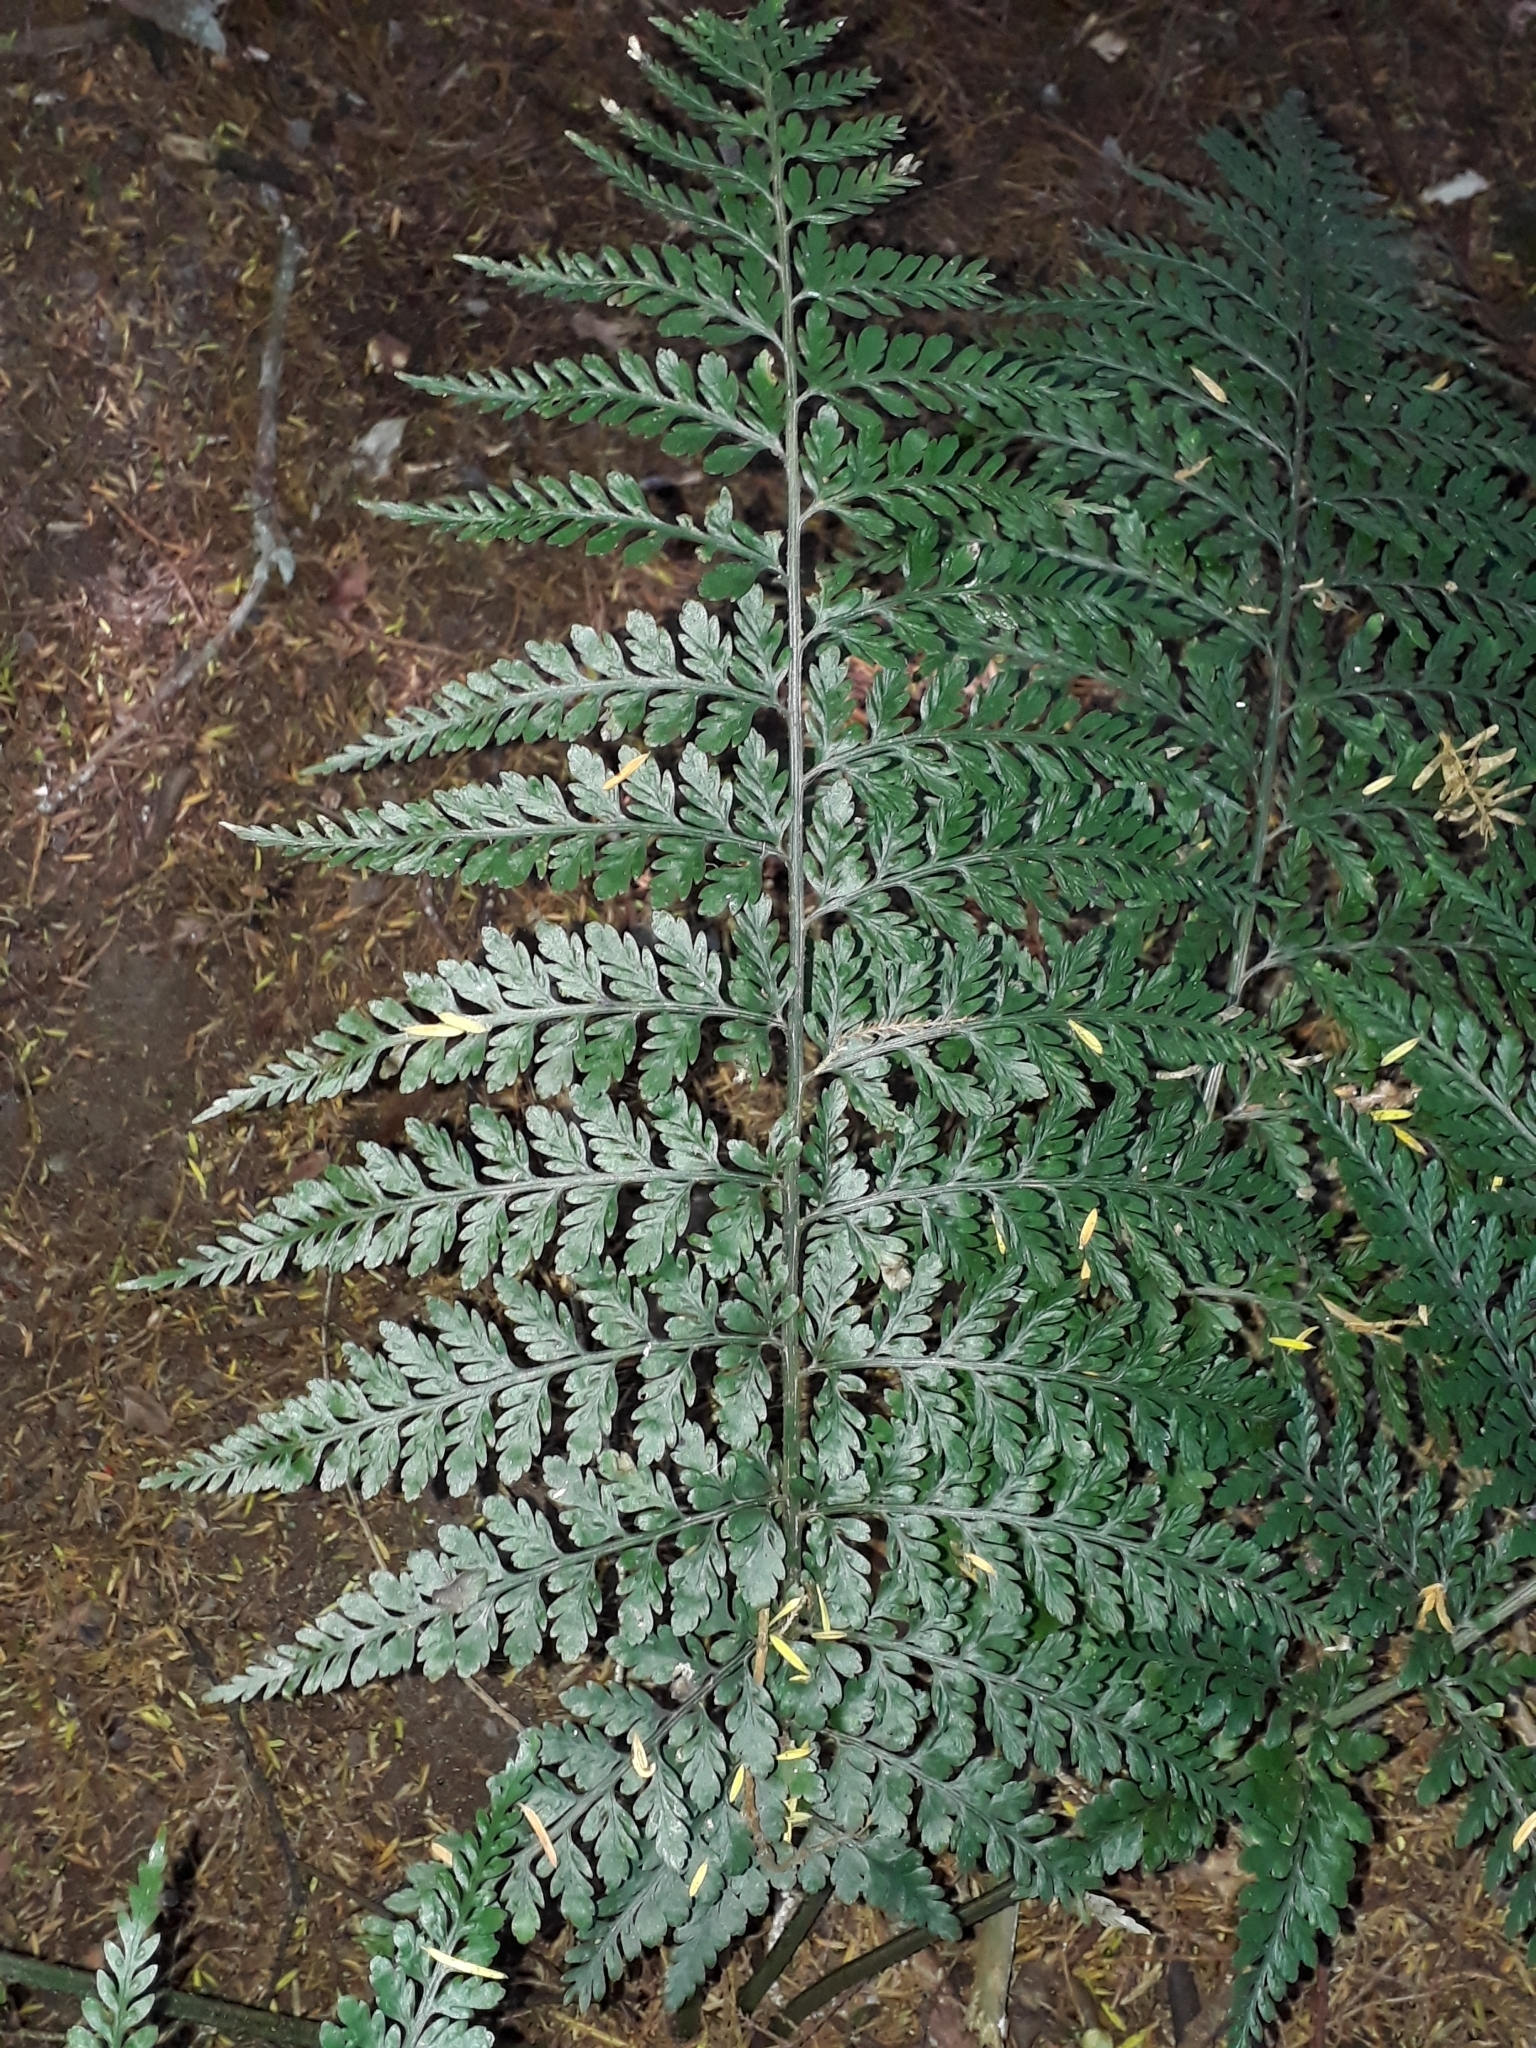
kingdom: Plantae
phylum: Tracheophyta
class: Polypodiopsida
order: Polypodiales
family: Aspleniaceae
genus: Asplenium
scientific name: Asplenium
